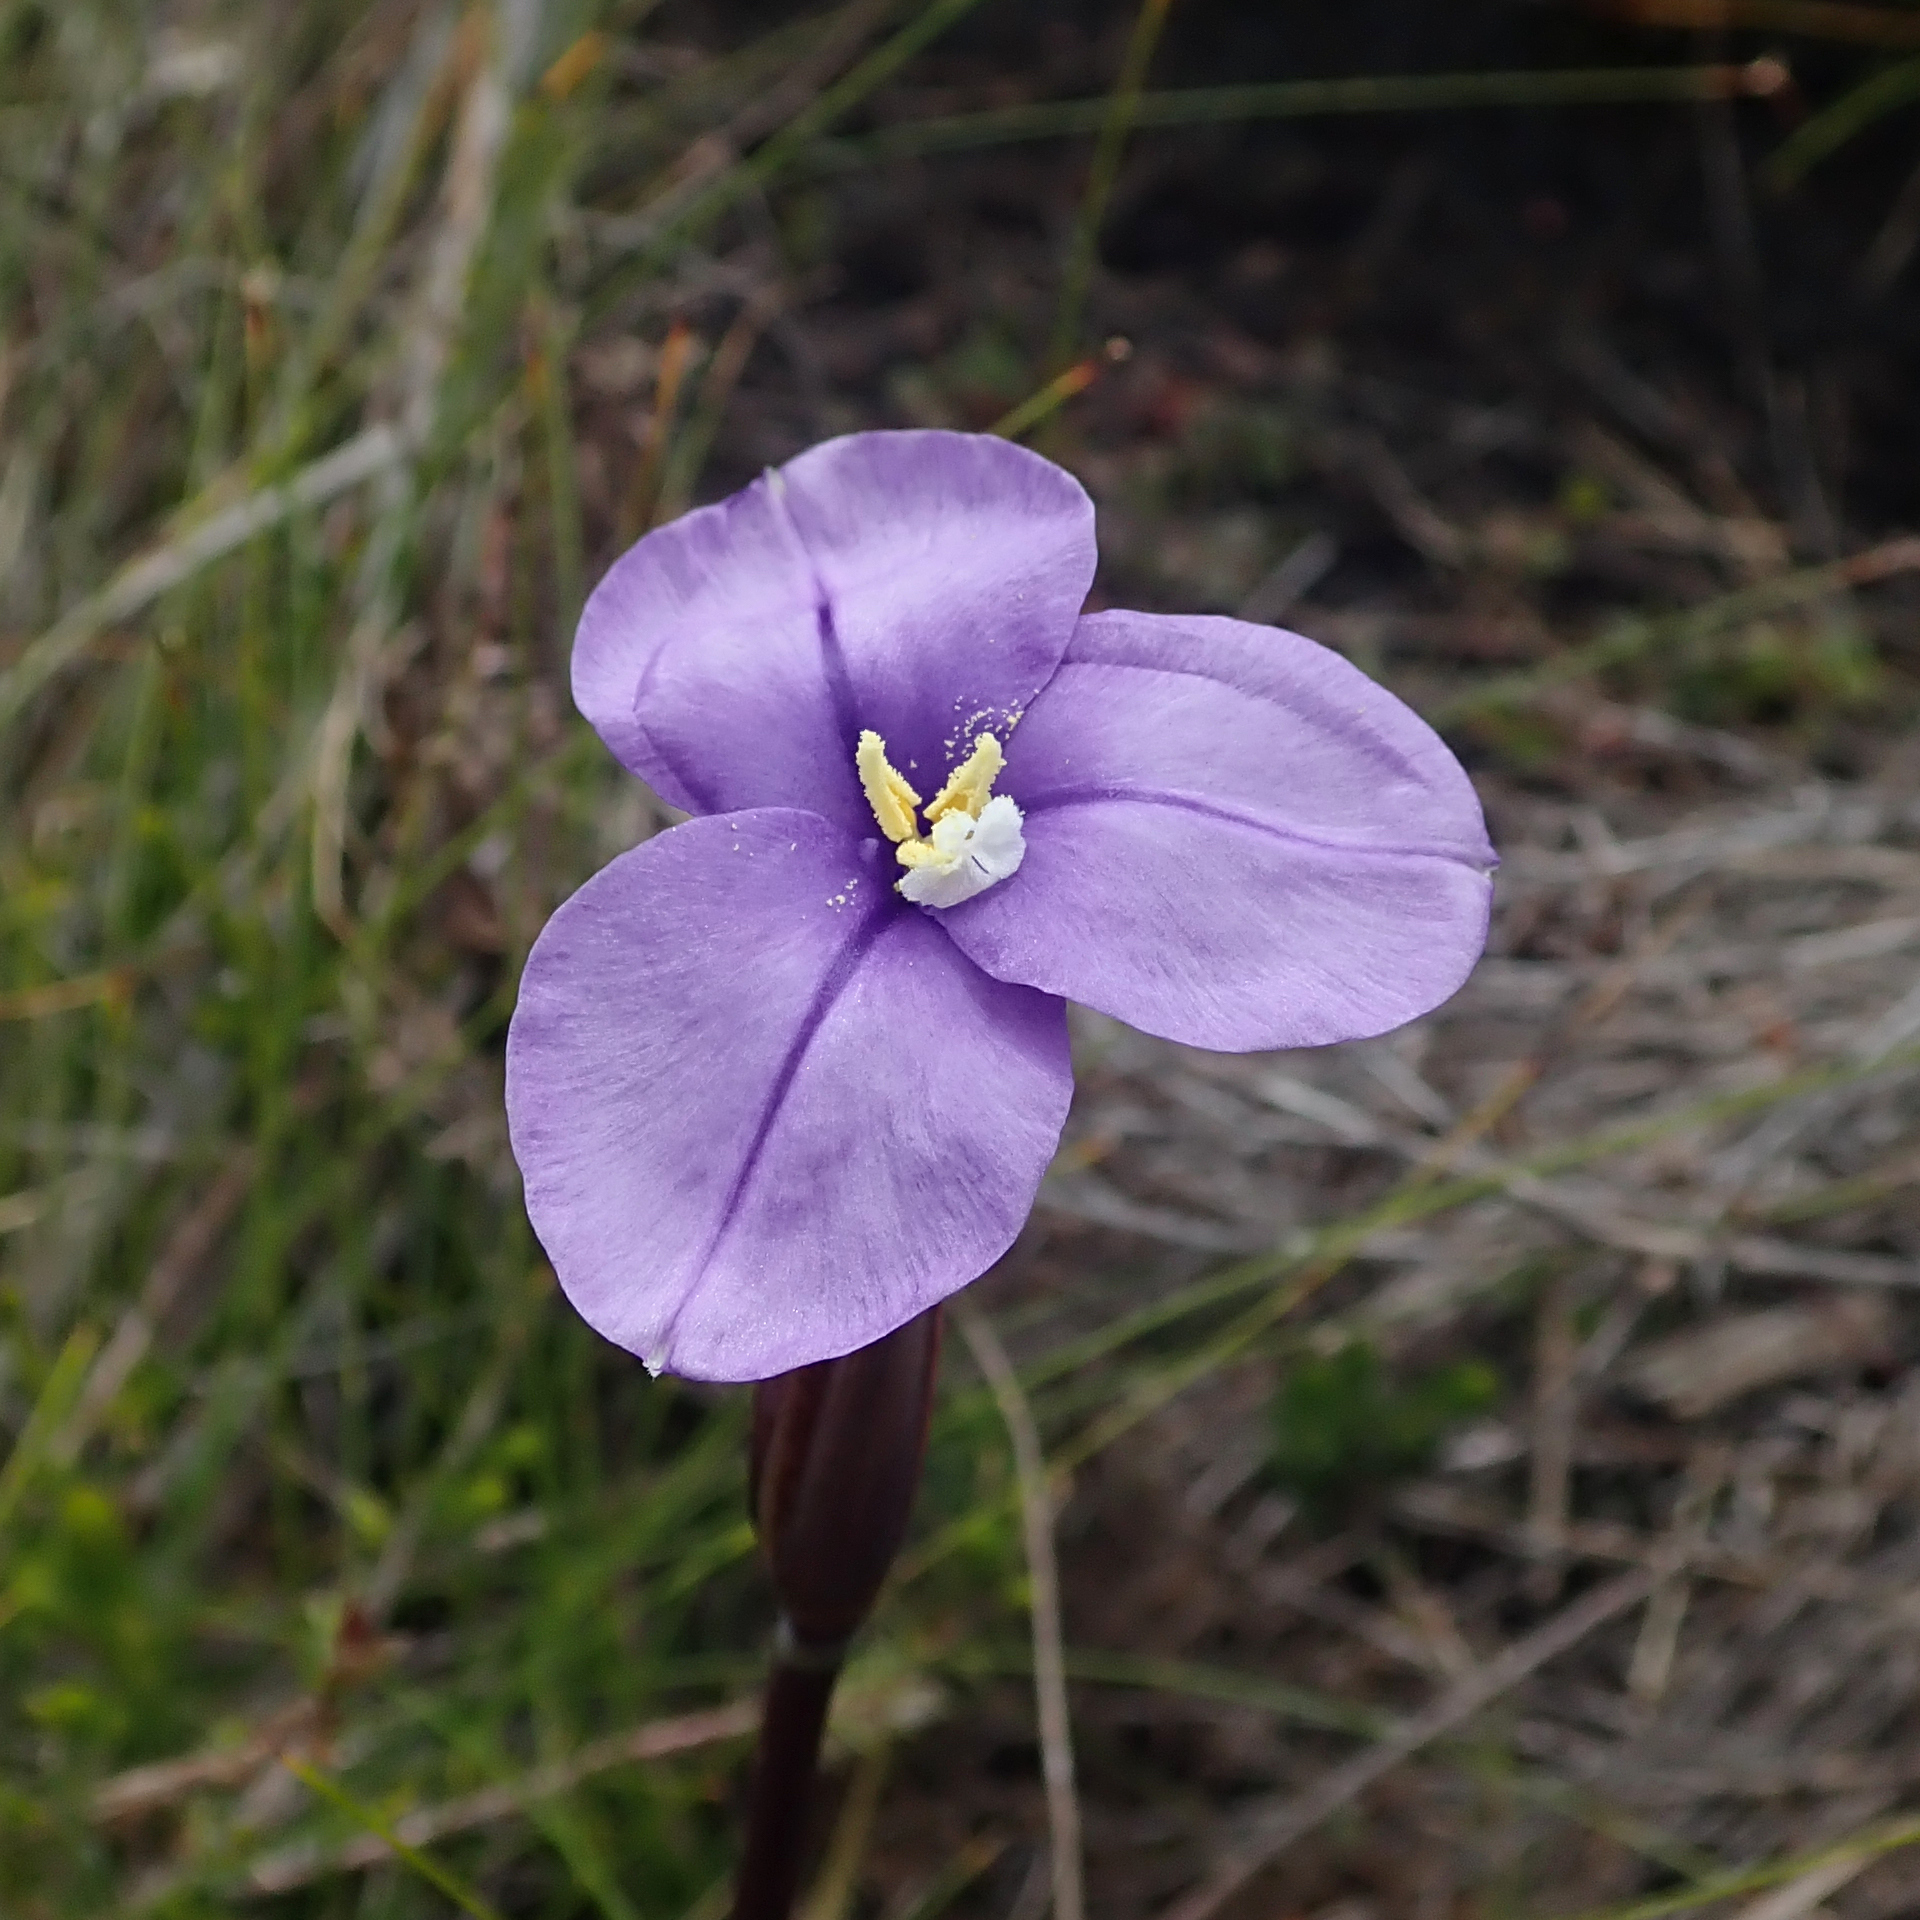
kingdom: Plantae
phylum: Tracheophyta
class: Liliopsida
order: Asparagales
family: Iridaceae
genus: Patersonia
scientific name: Patersonia occidentalis
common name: Long purple-flag
